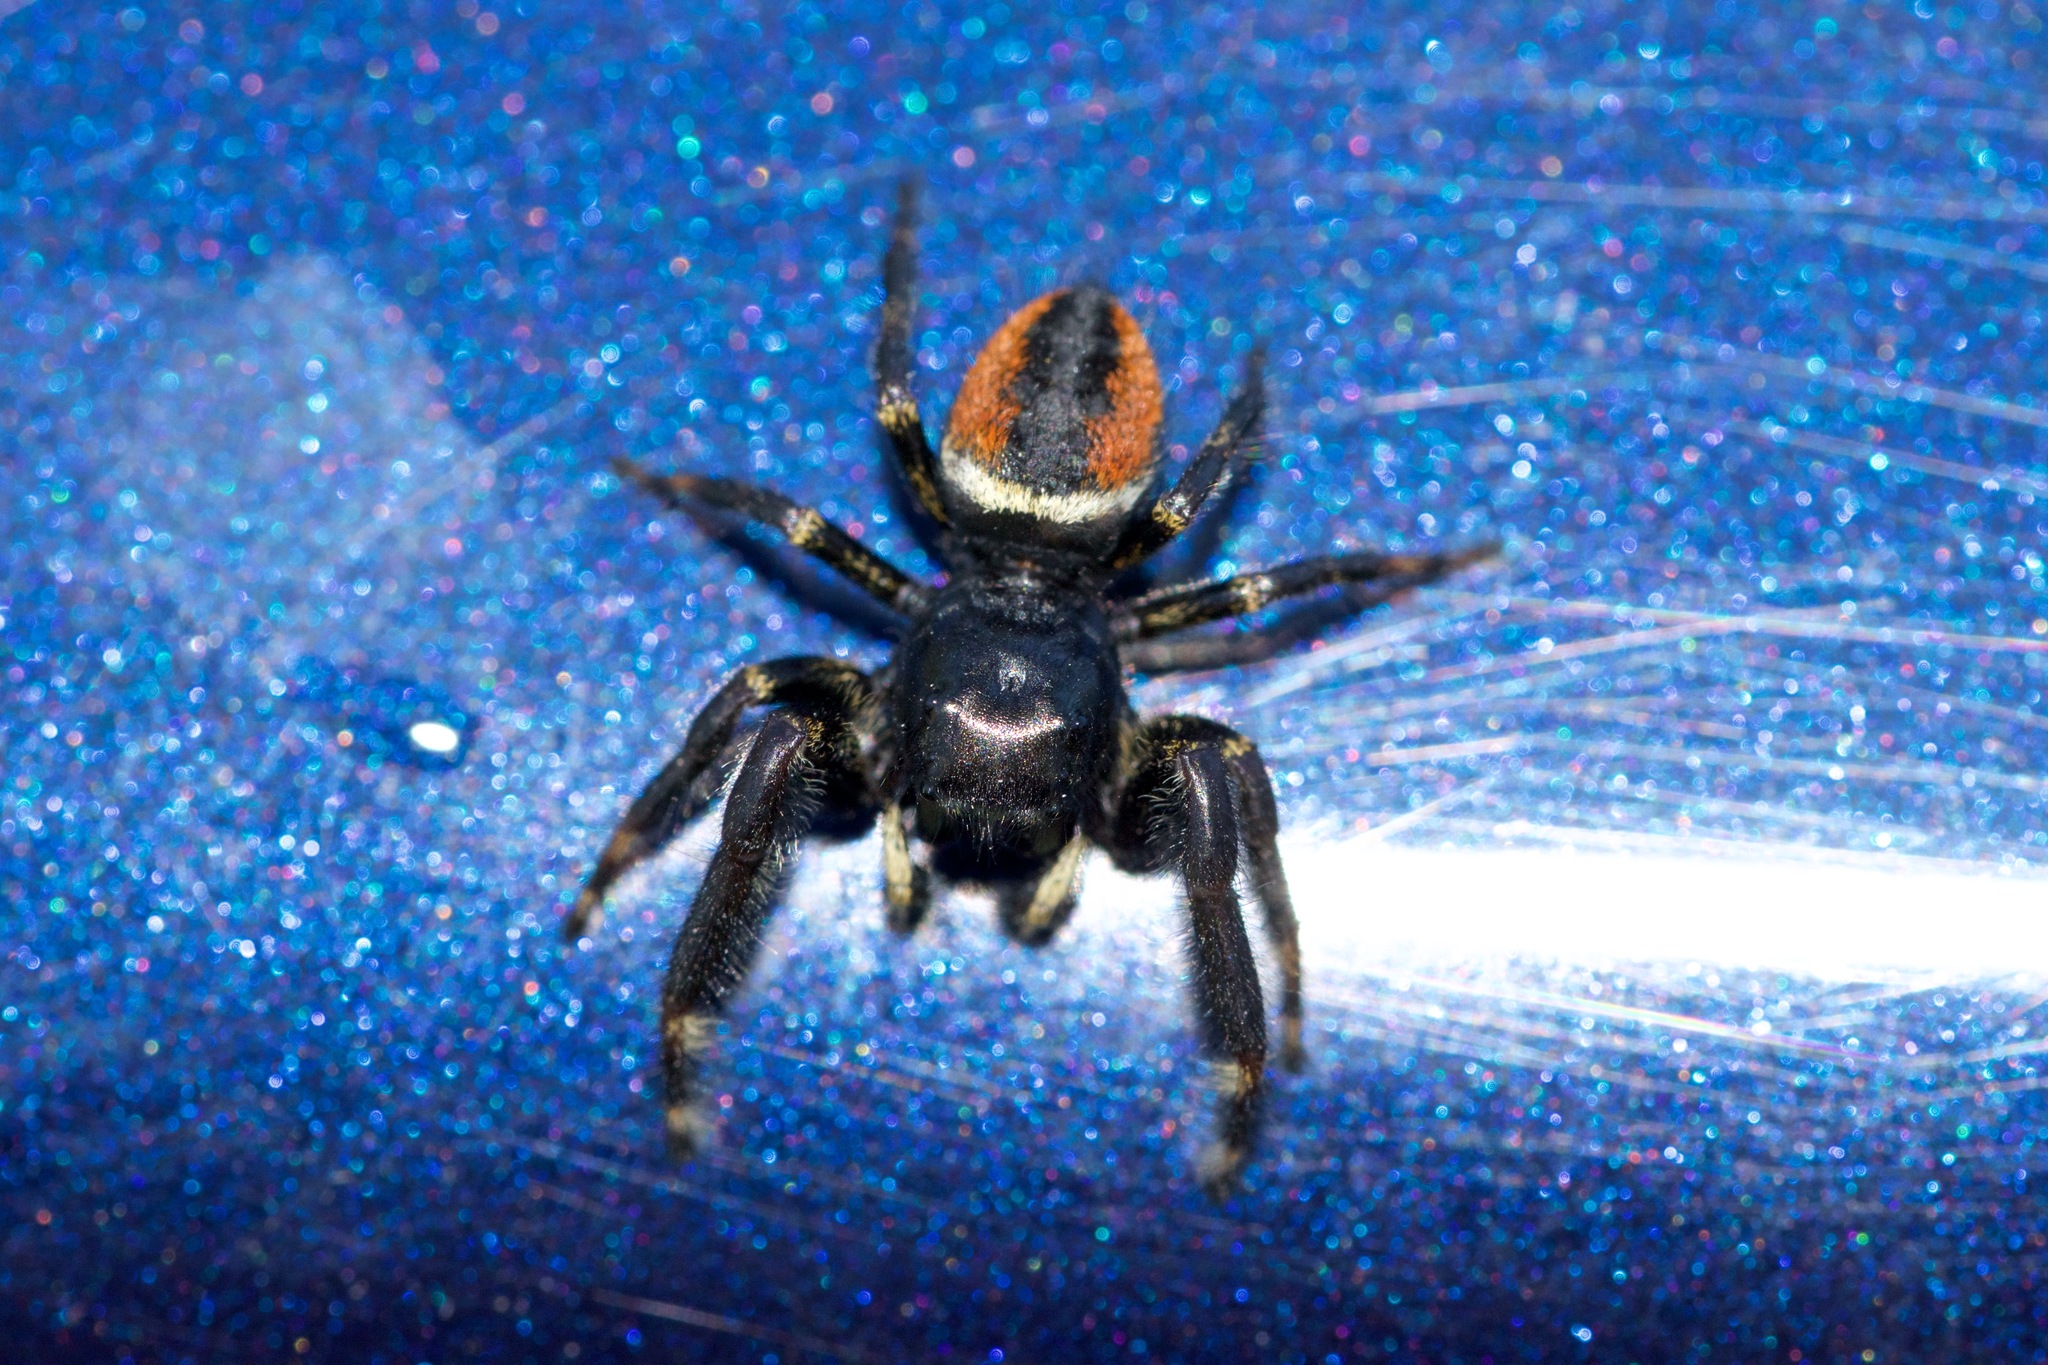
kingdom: Animalia
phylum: Arthropoda
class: Arachnida
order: Araneae
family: Salticidae
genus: Phidippus
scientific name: Phidippus clarus
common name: Brilliant jumping spider
